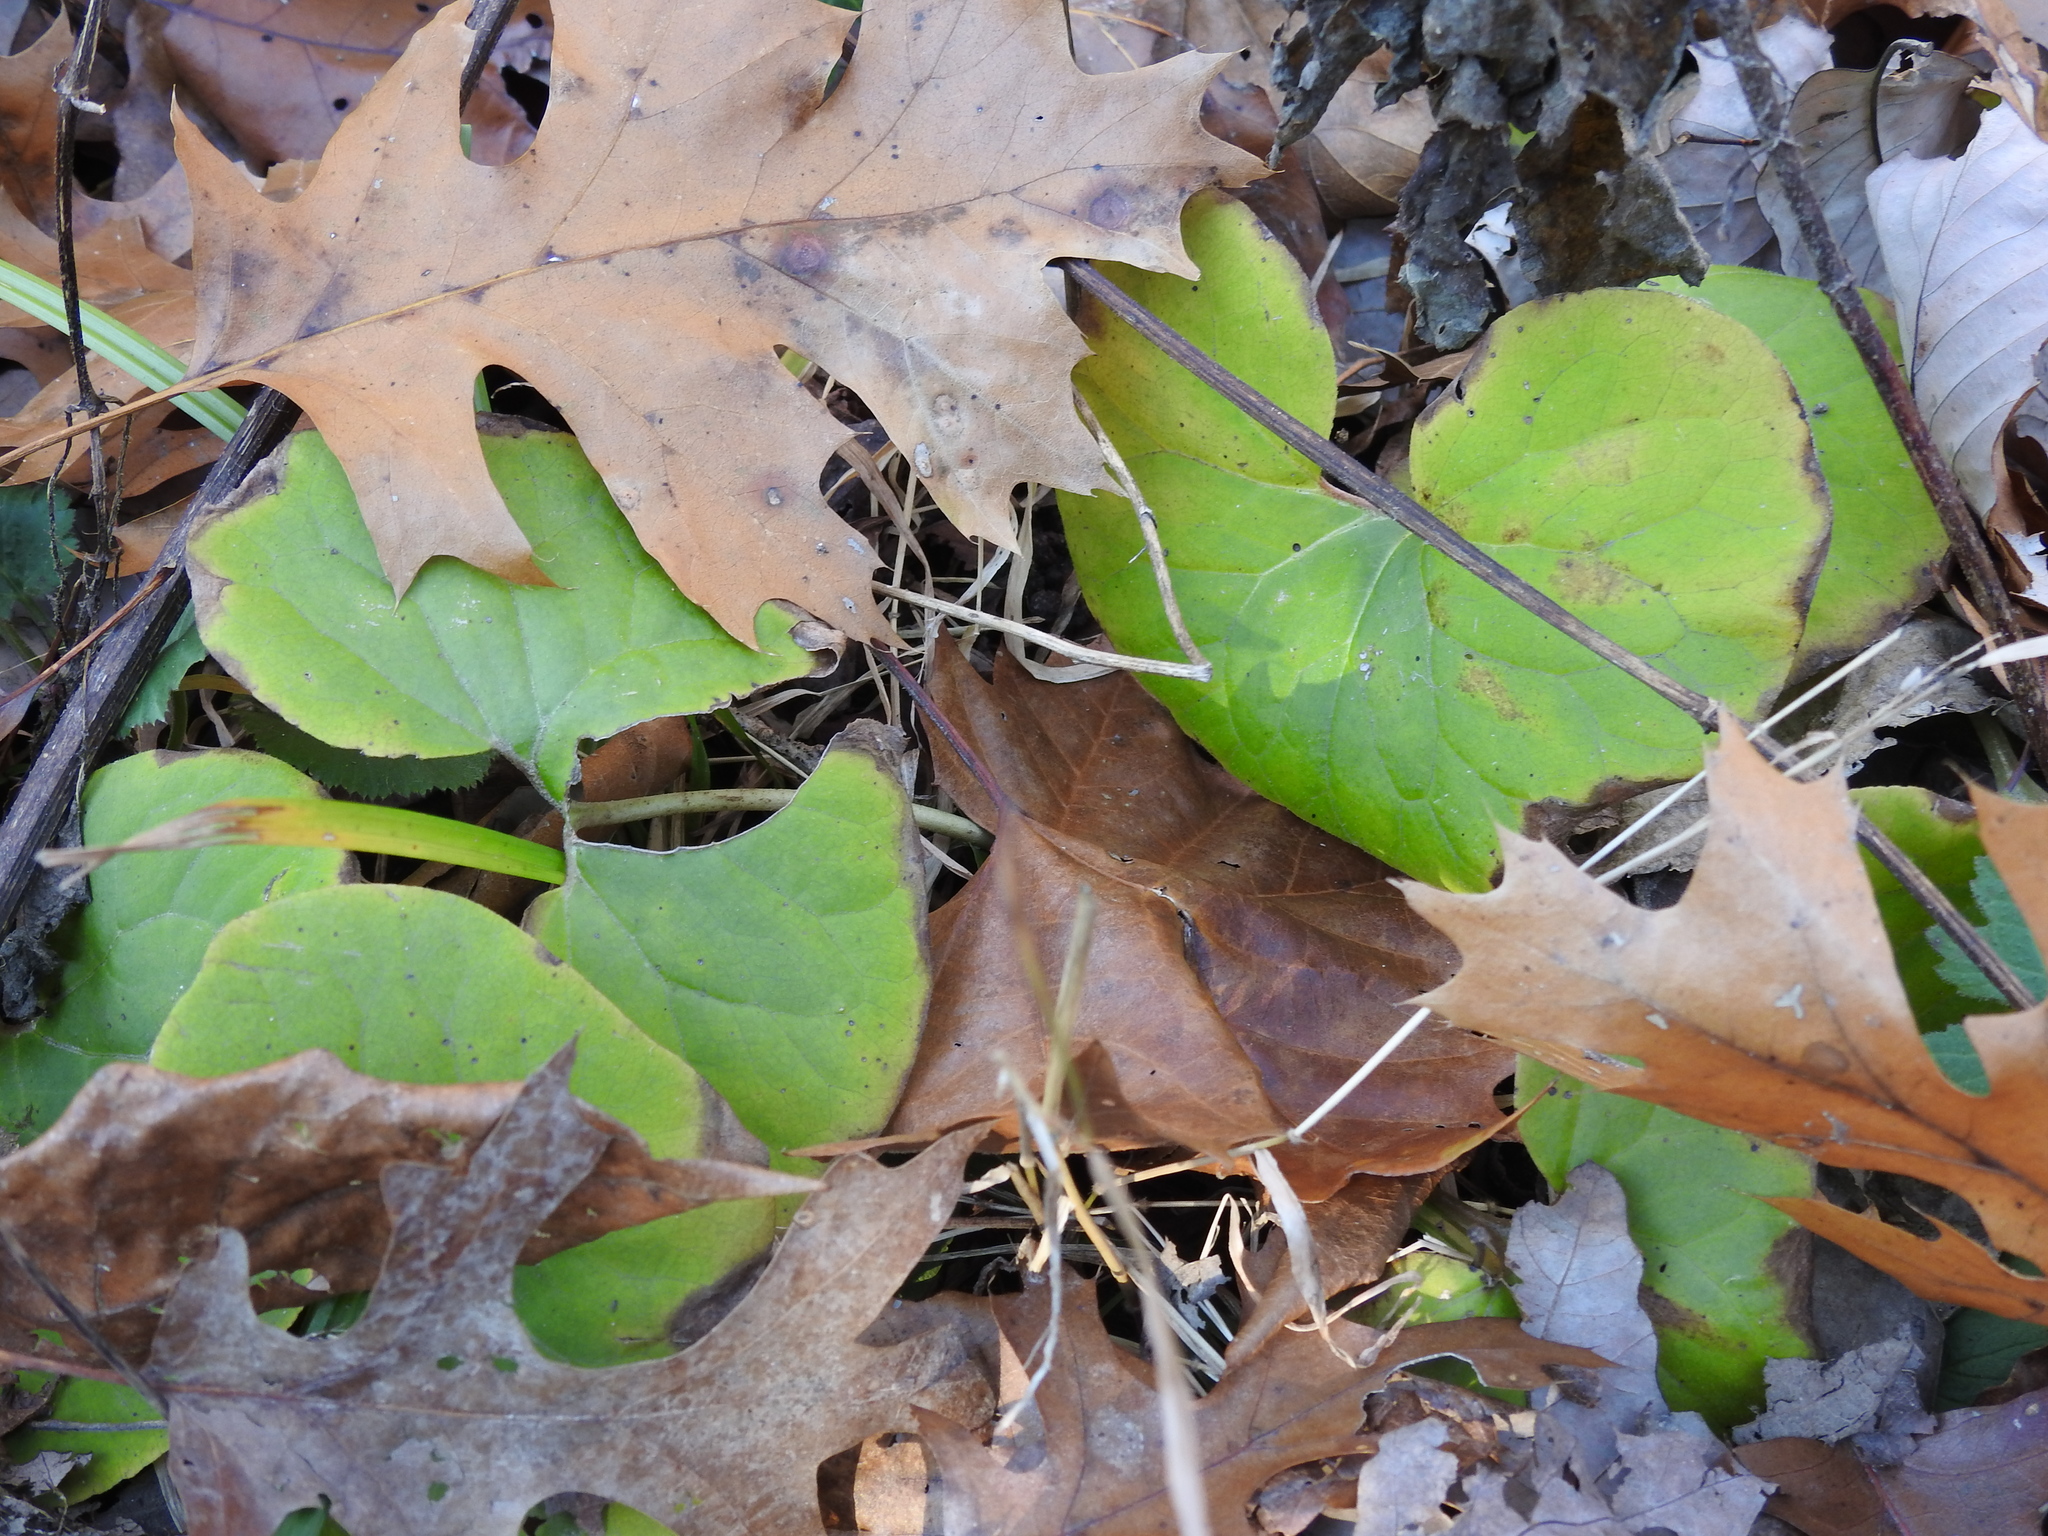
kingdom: Plantae
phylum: Tracheophyta
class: Magnoliopsida
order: Piperales
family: Aristolochiaceae
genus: Asarum
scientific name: Asarum canadense
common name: Wild ginger
